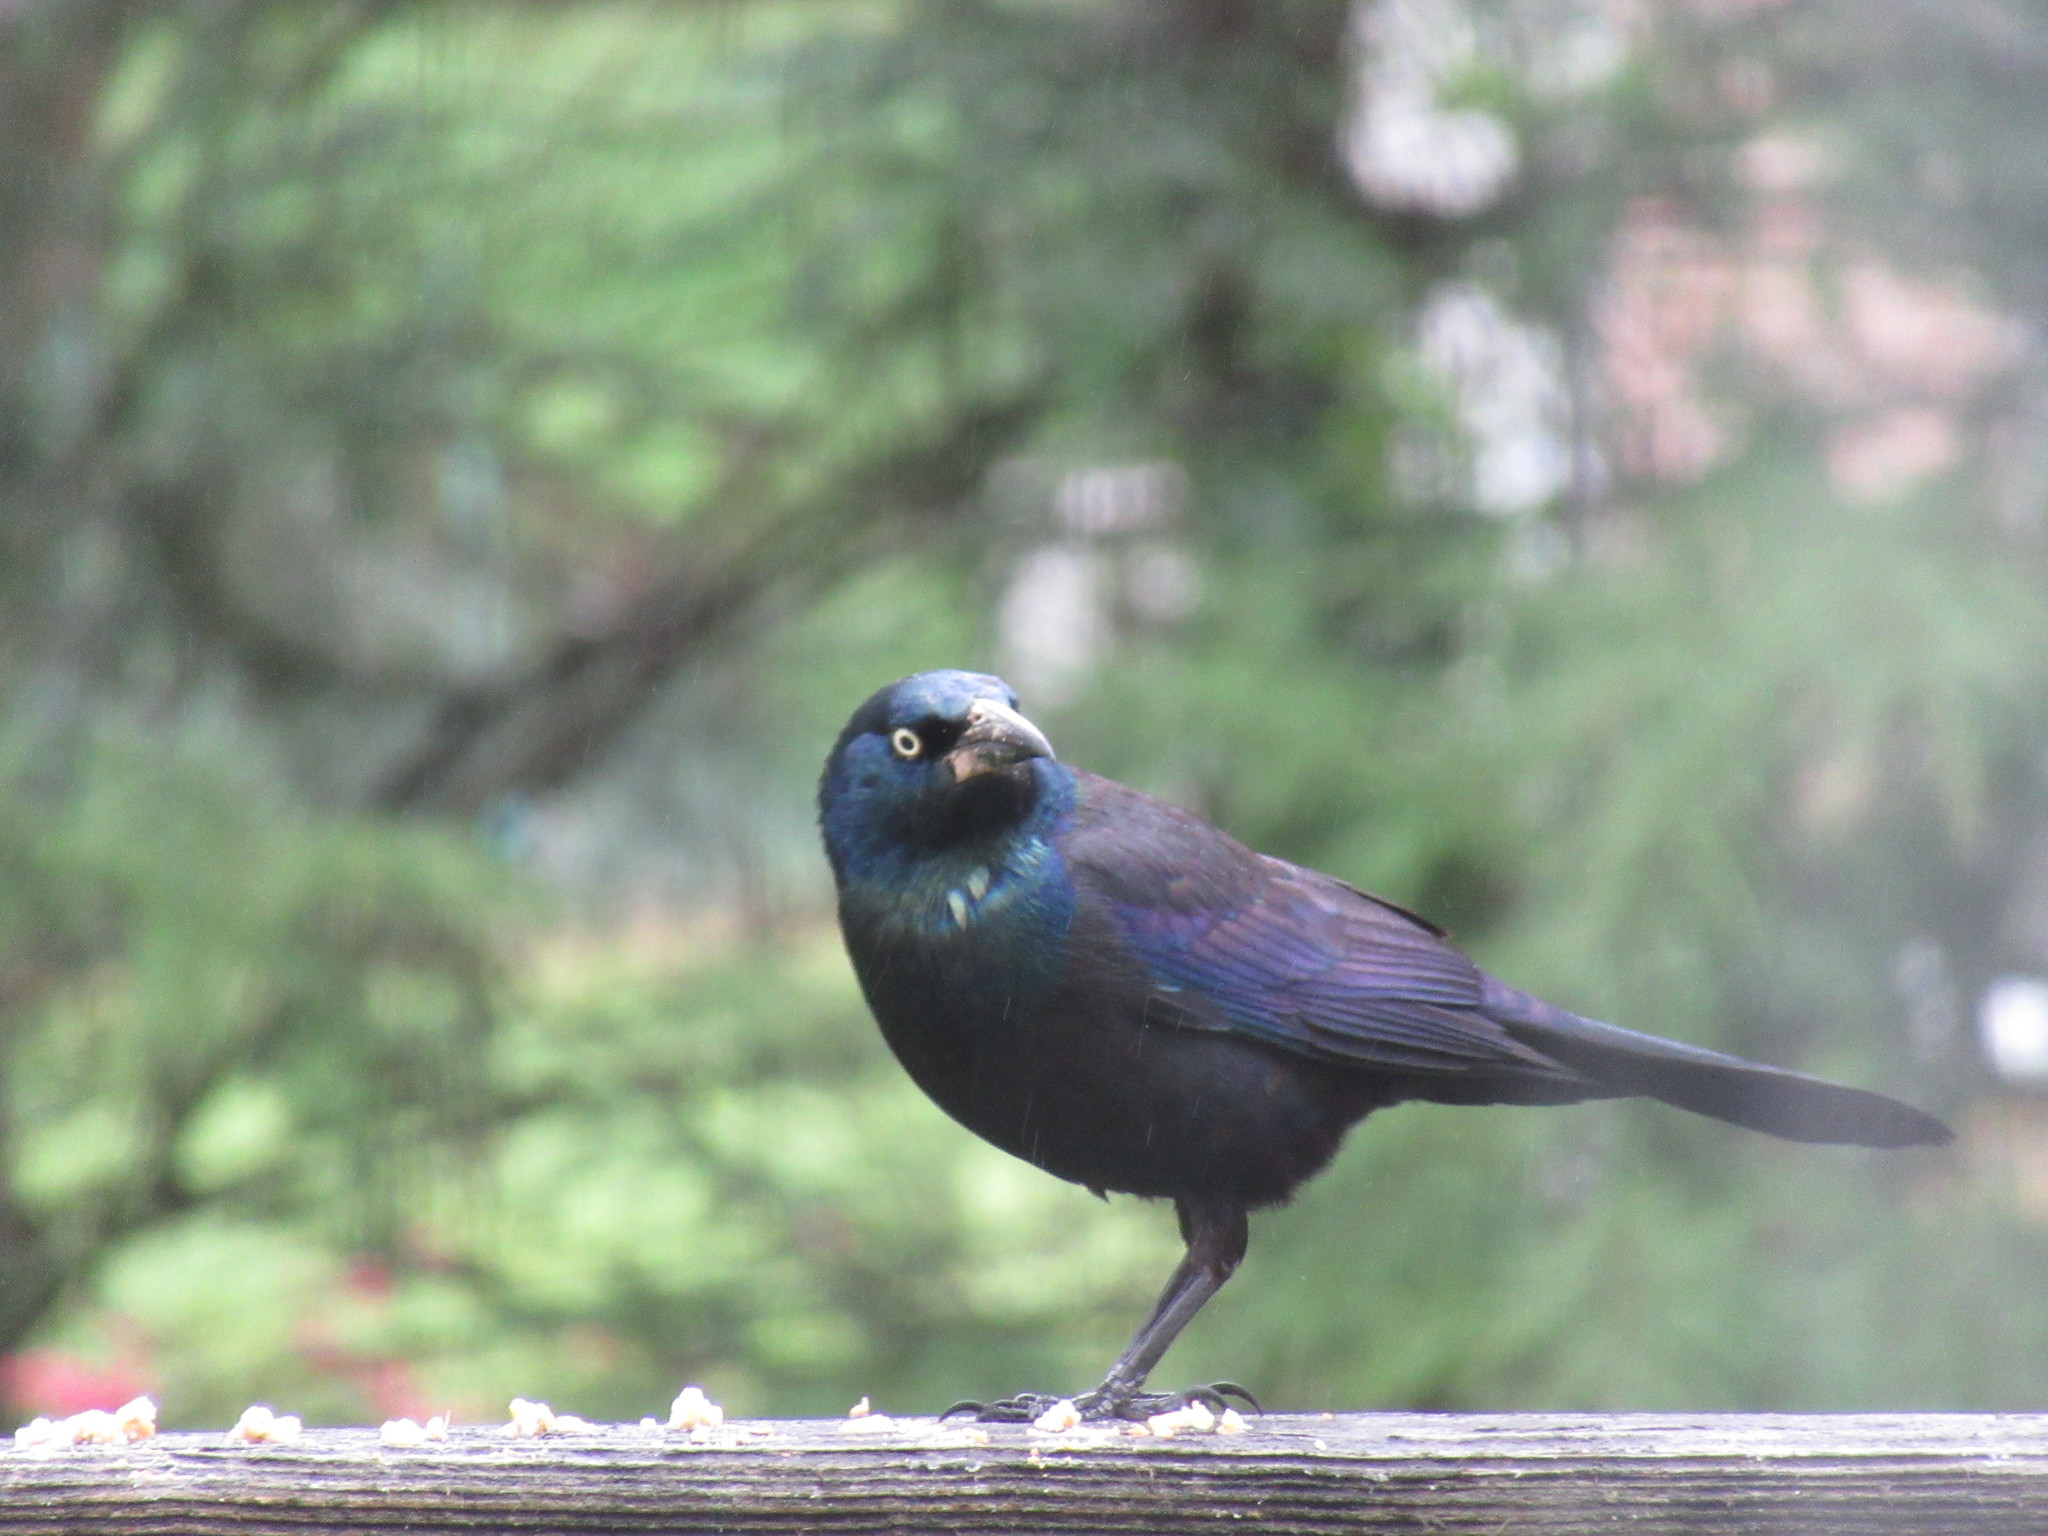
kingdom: Animalia
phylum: Chordata
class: Aves
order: Passeriformes
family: Icteridae
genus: Quiscalus
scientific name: Quiscalus quiscula
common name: Common grackle
